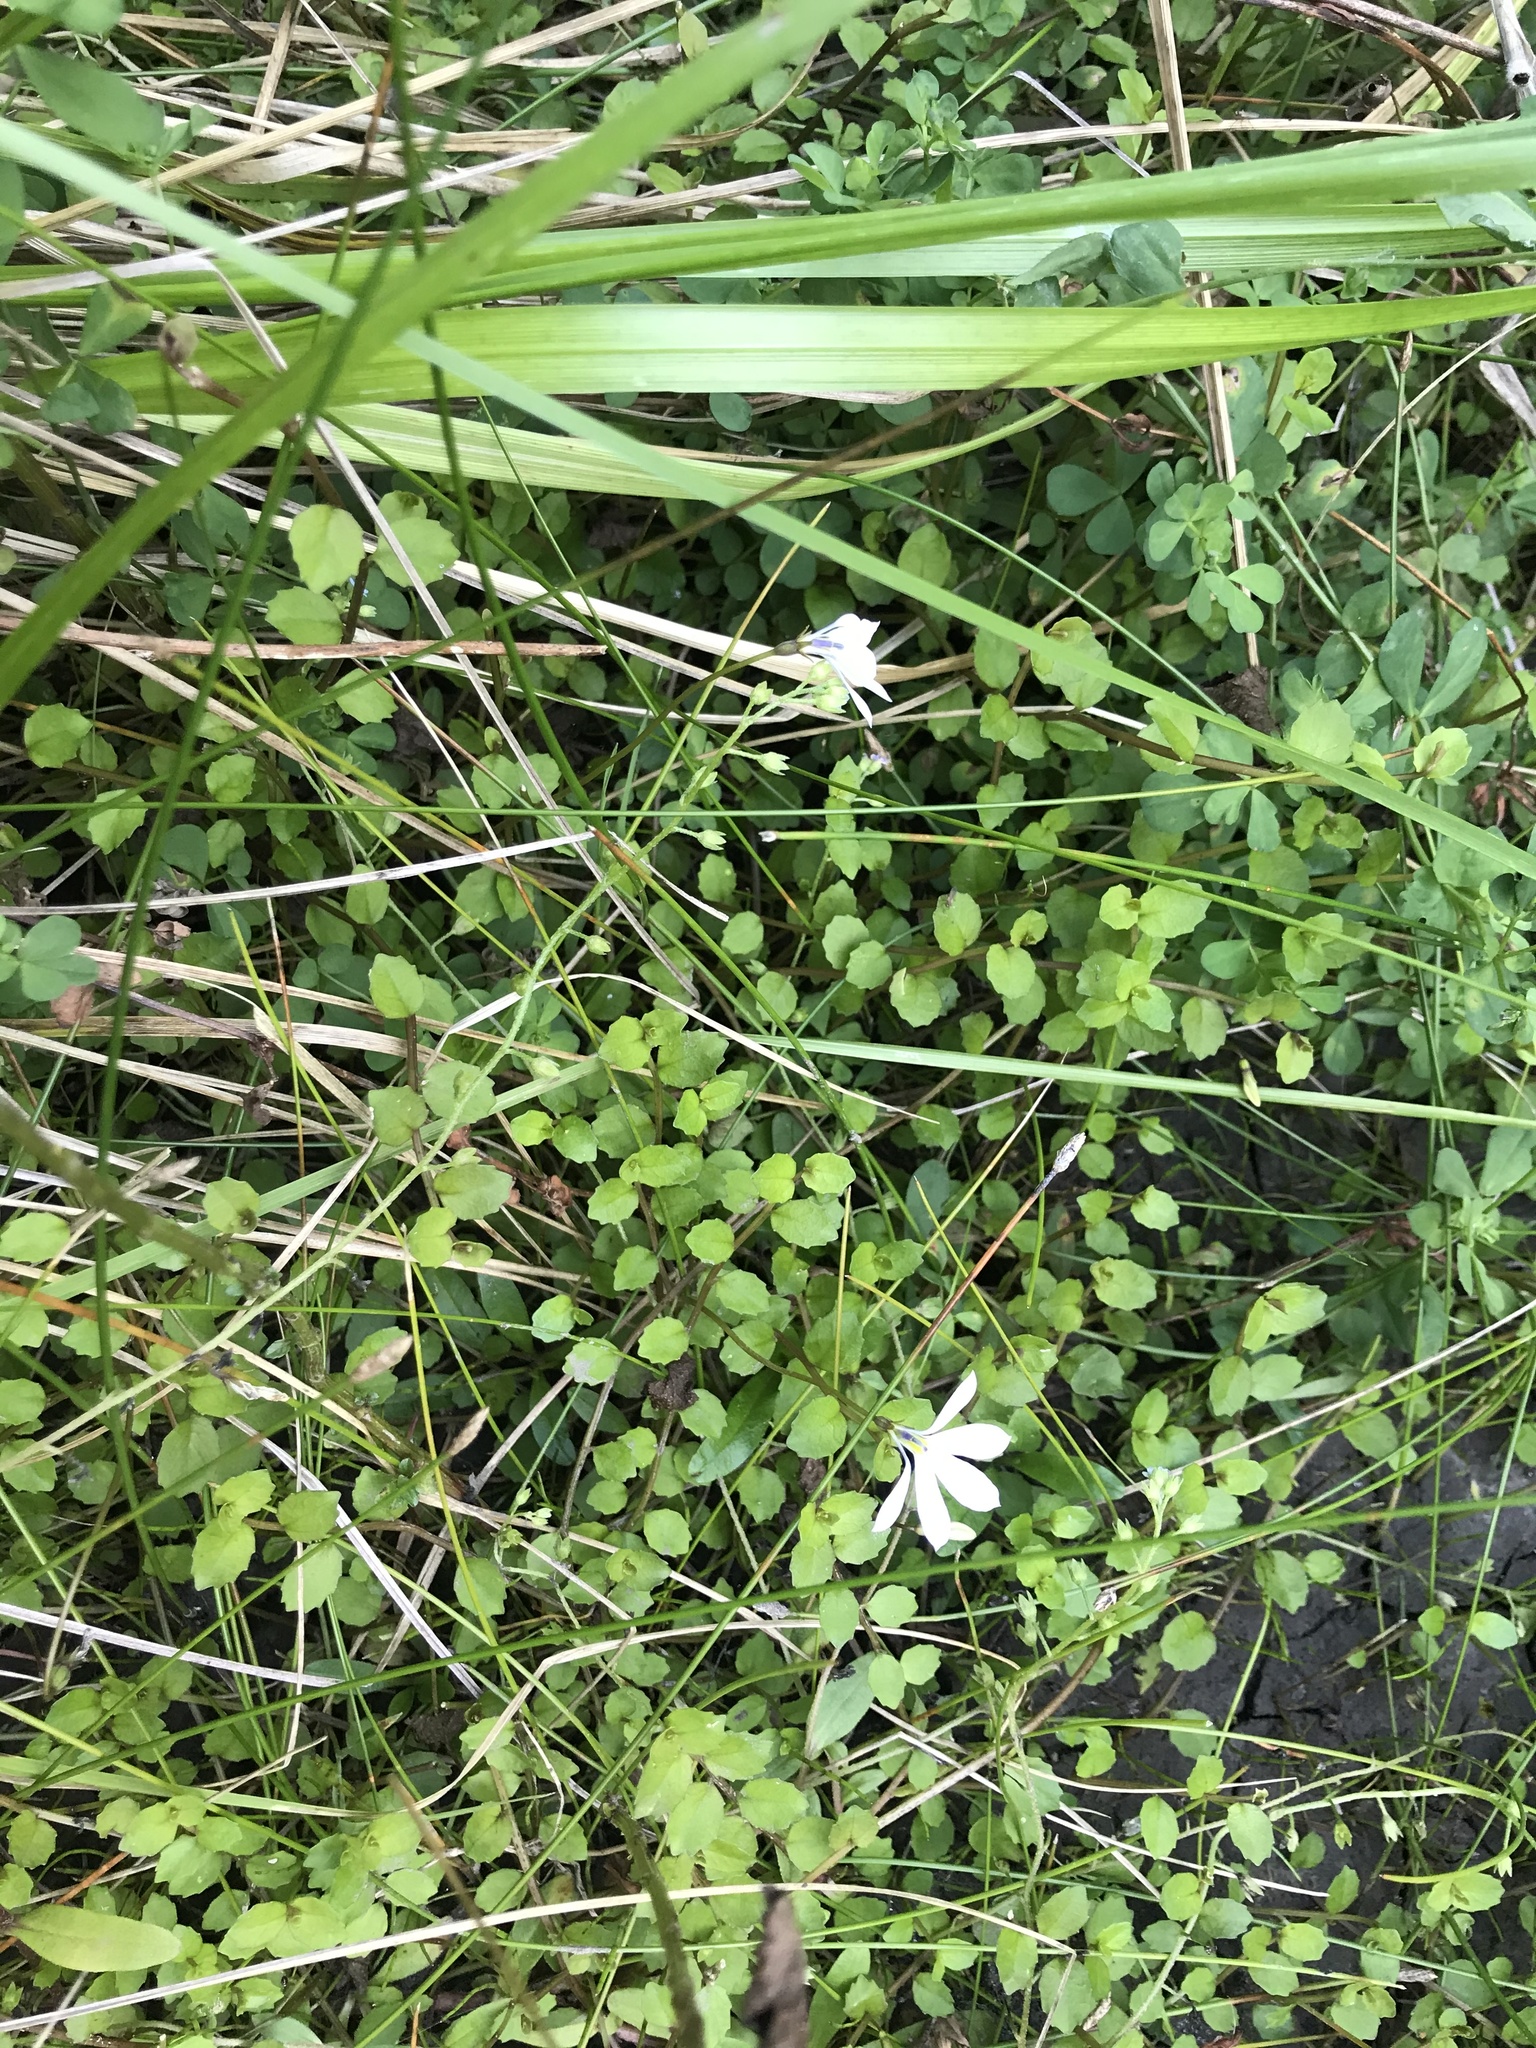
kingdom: Plantae
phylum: Tracheophyta
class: Magnoliopsida
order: Asterales
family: Campanulaceae
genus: Lobelia
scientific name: Lobelia angulata
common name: Lawn lobelia
